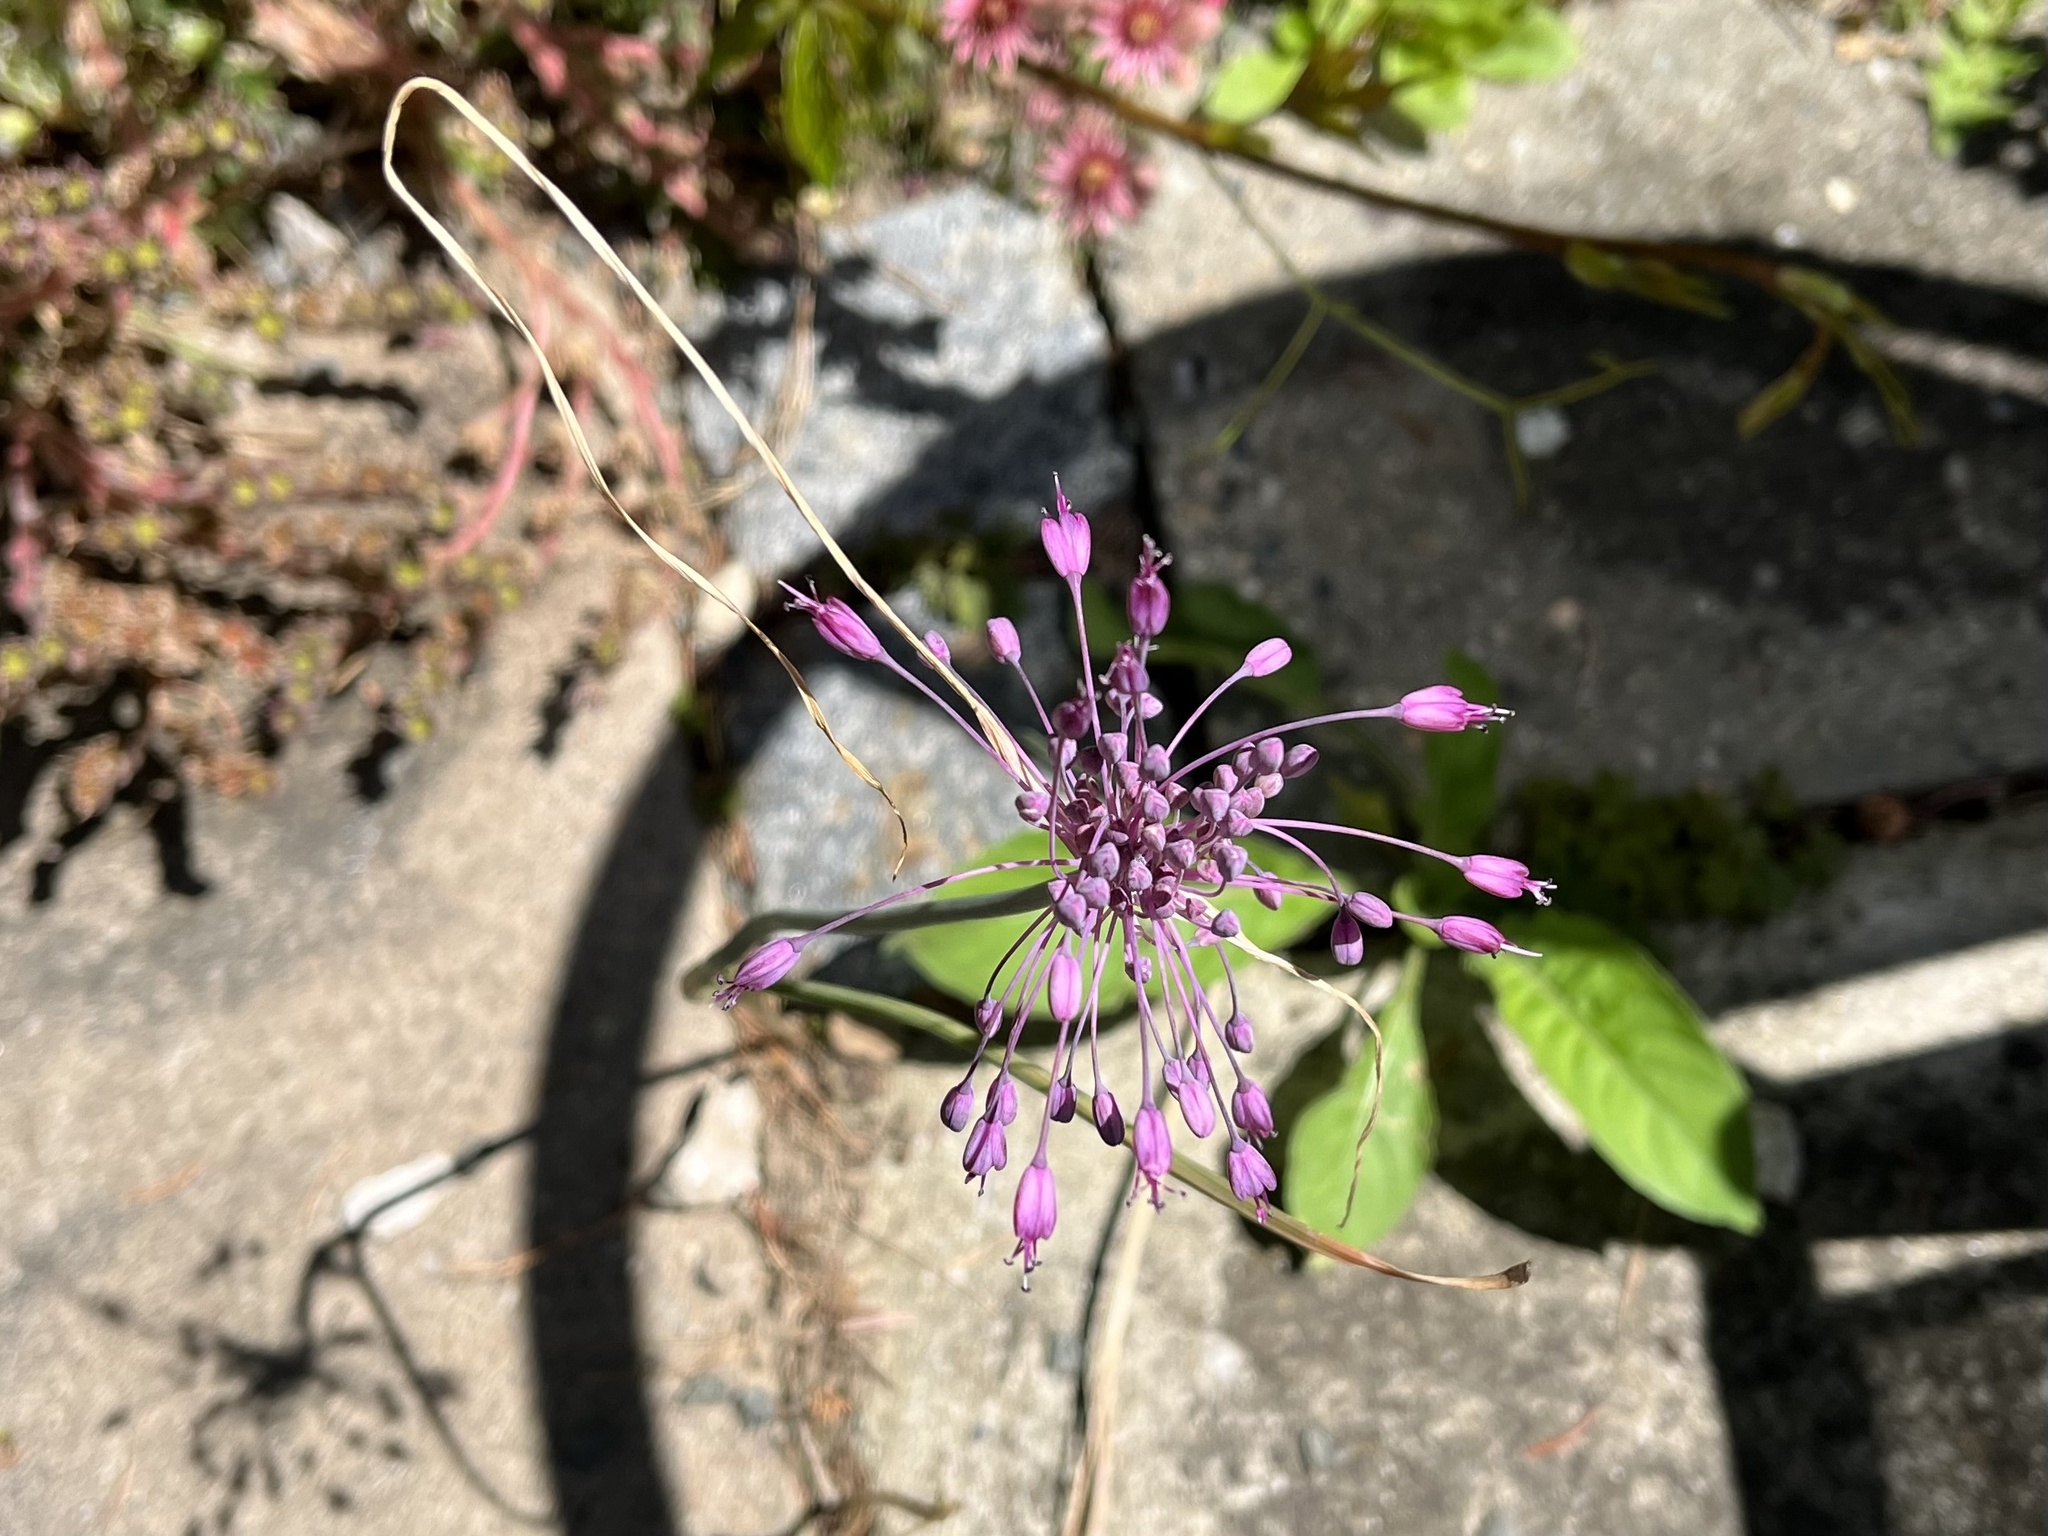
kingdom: Plantae
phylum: Tracheophyta
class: Liliopsida
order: Asparagales
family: Amaryllidaceae
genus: Allium
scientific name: Allium carinatum
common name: Keeled garlic
